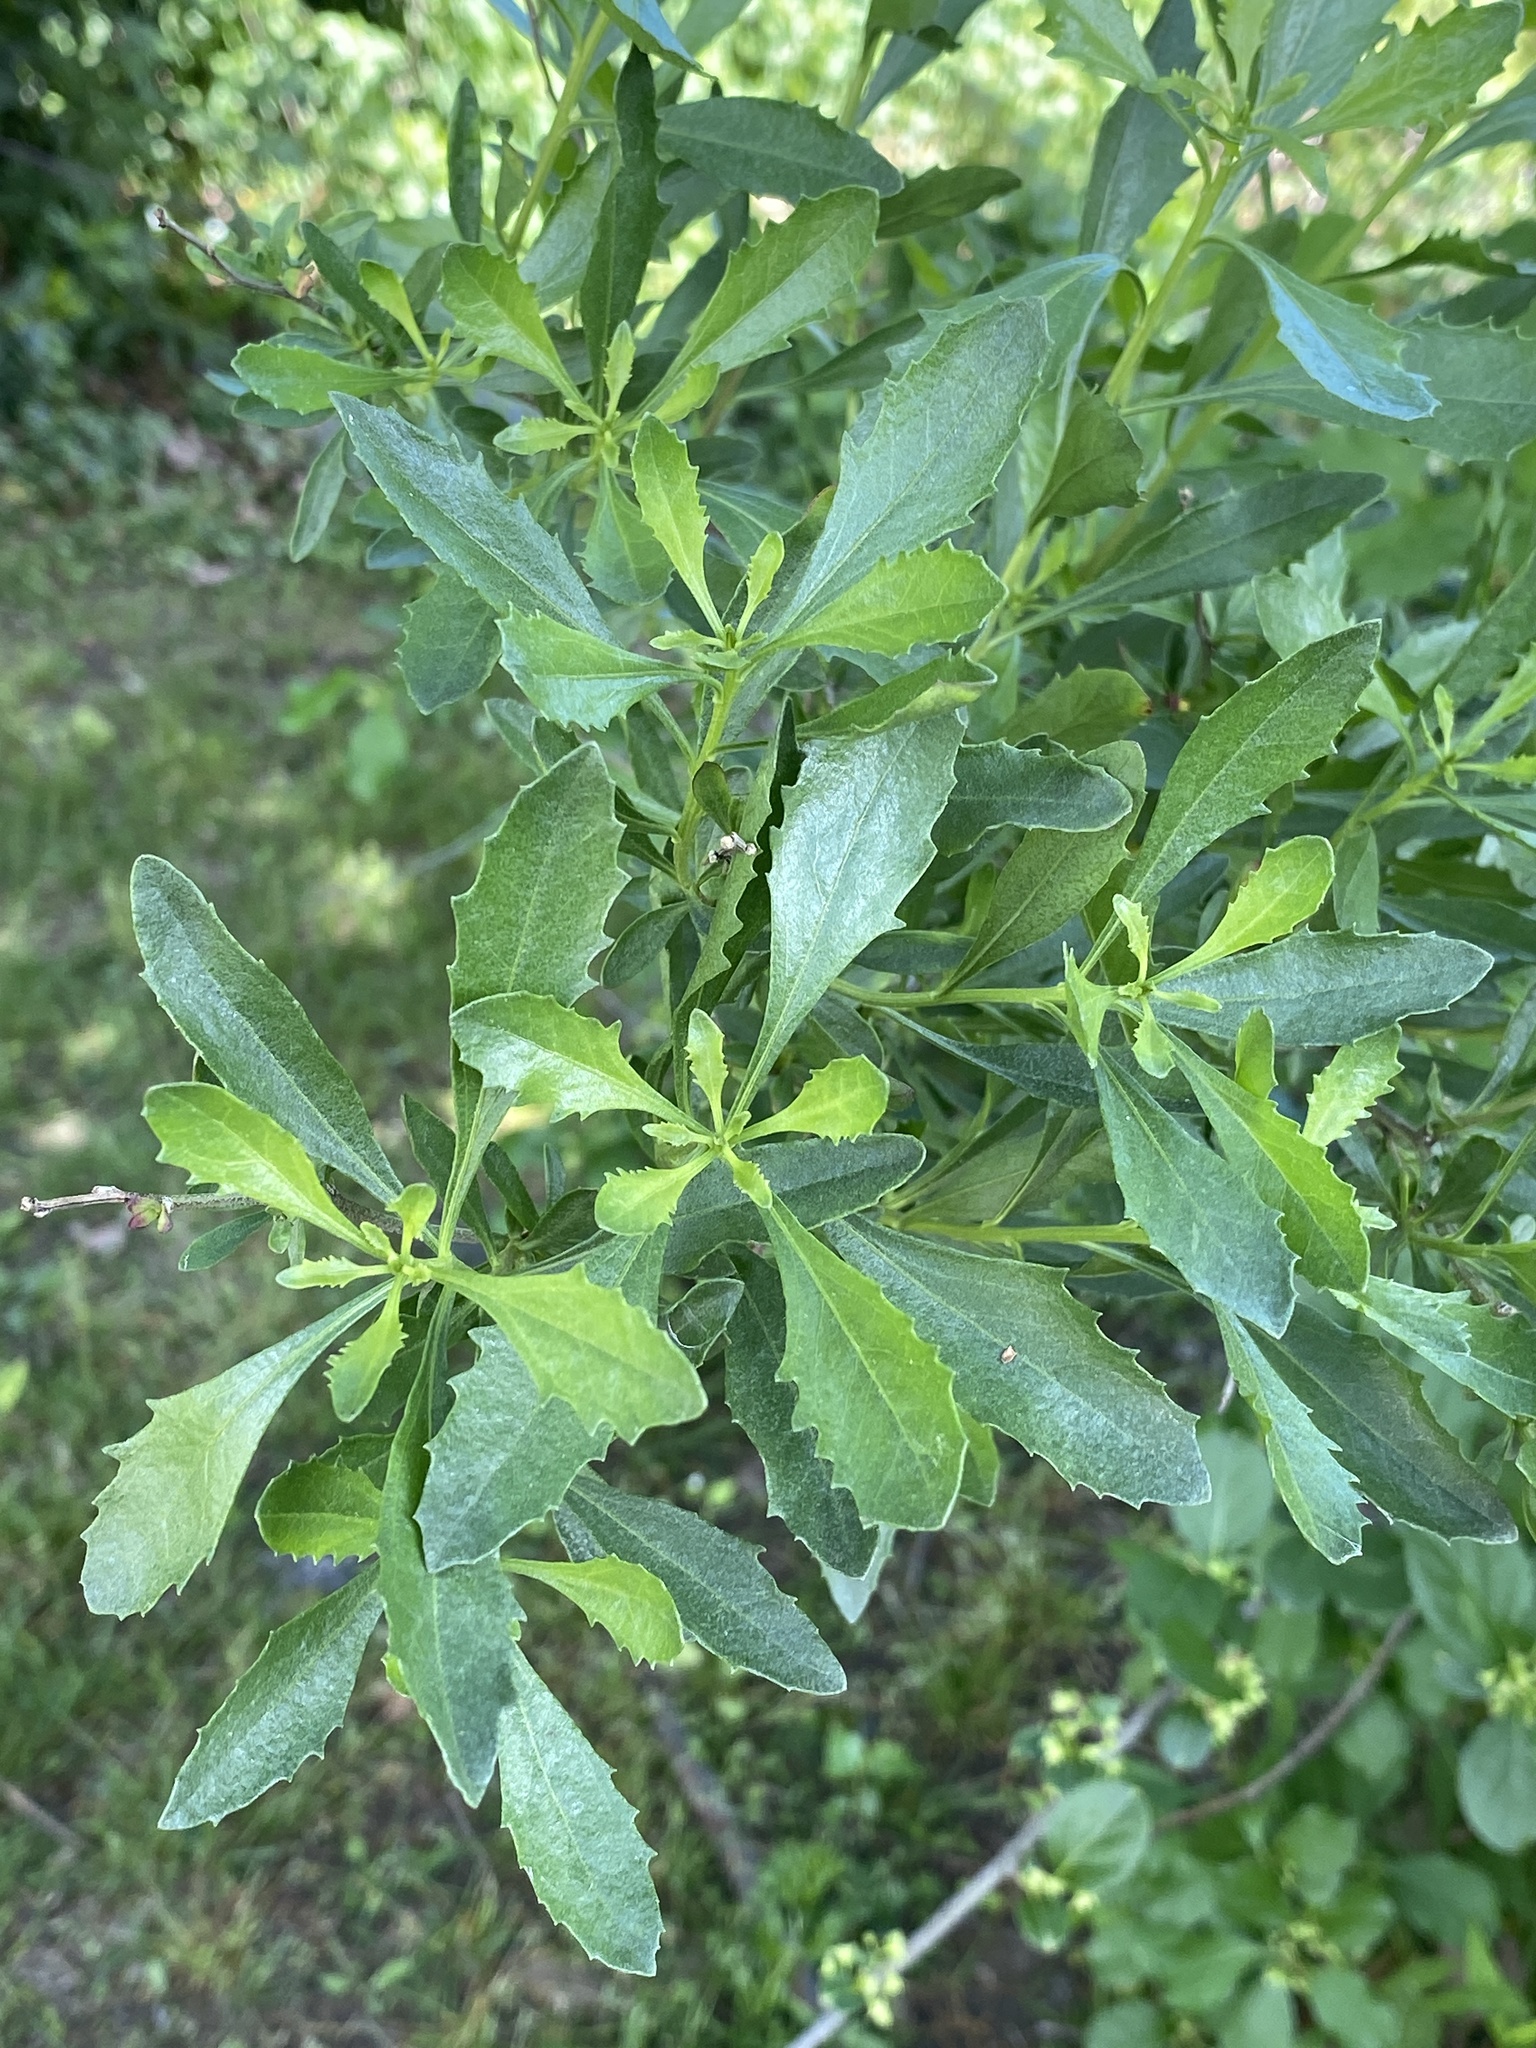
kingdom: Plantae
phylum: Tracheophyta
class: Magnoliopsida
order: Asterales
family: Asteraceae
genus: Baccharis
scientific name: Baccharis halimifolia
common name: Eastern baccharis
